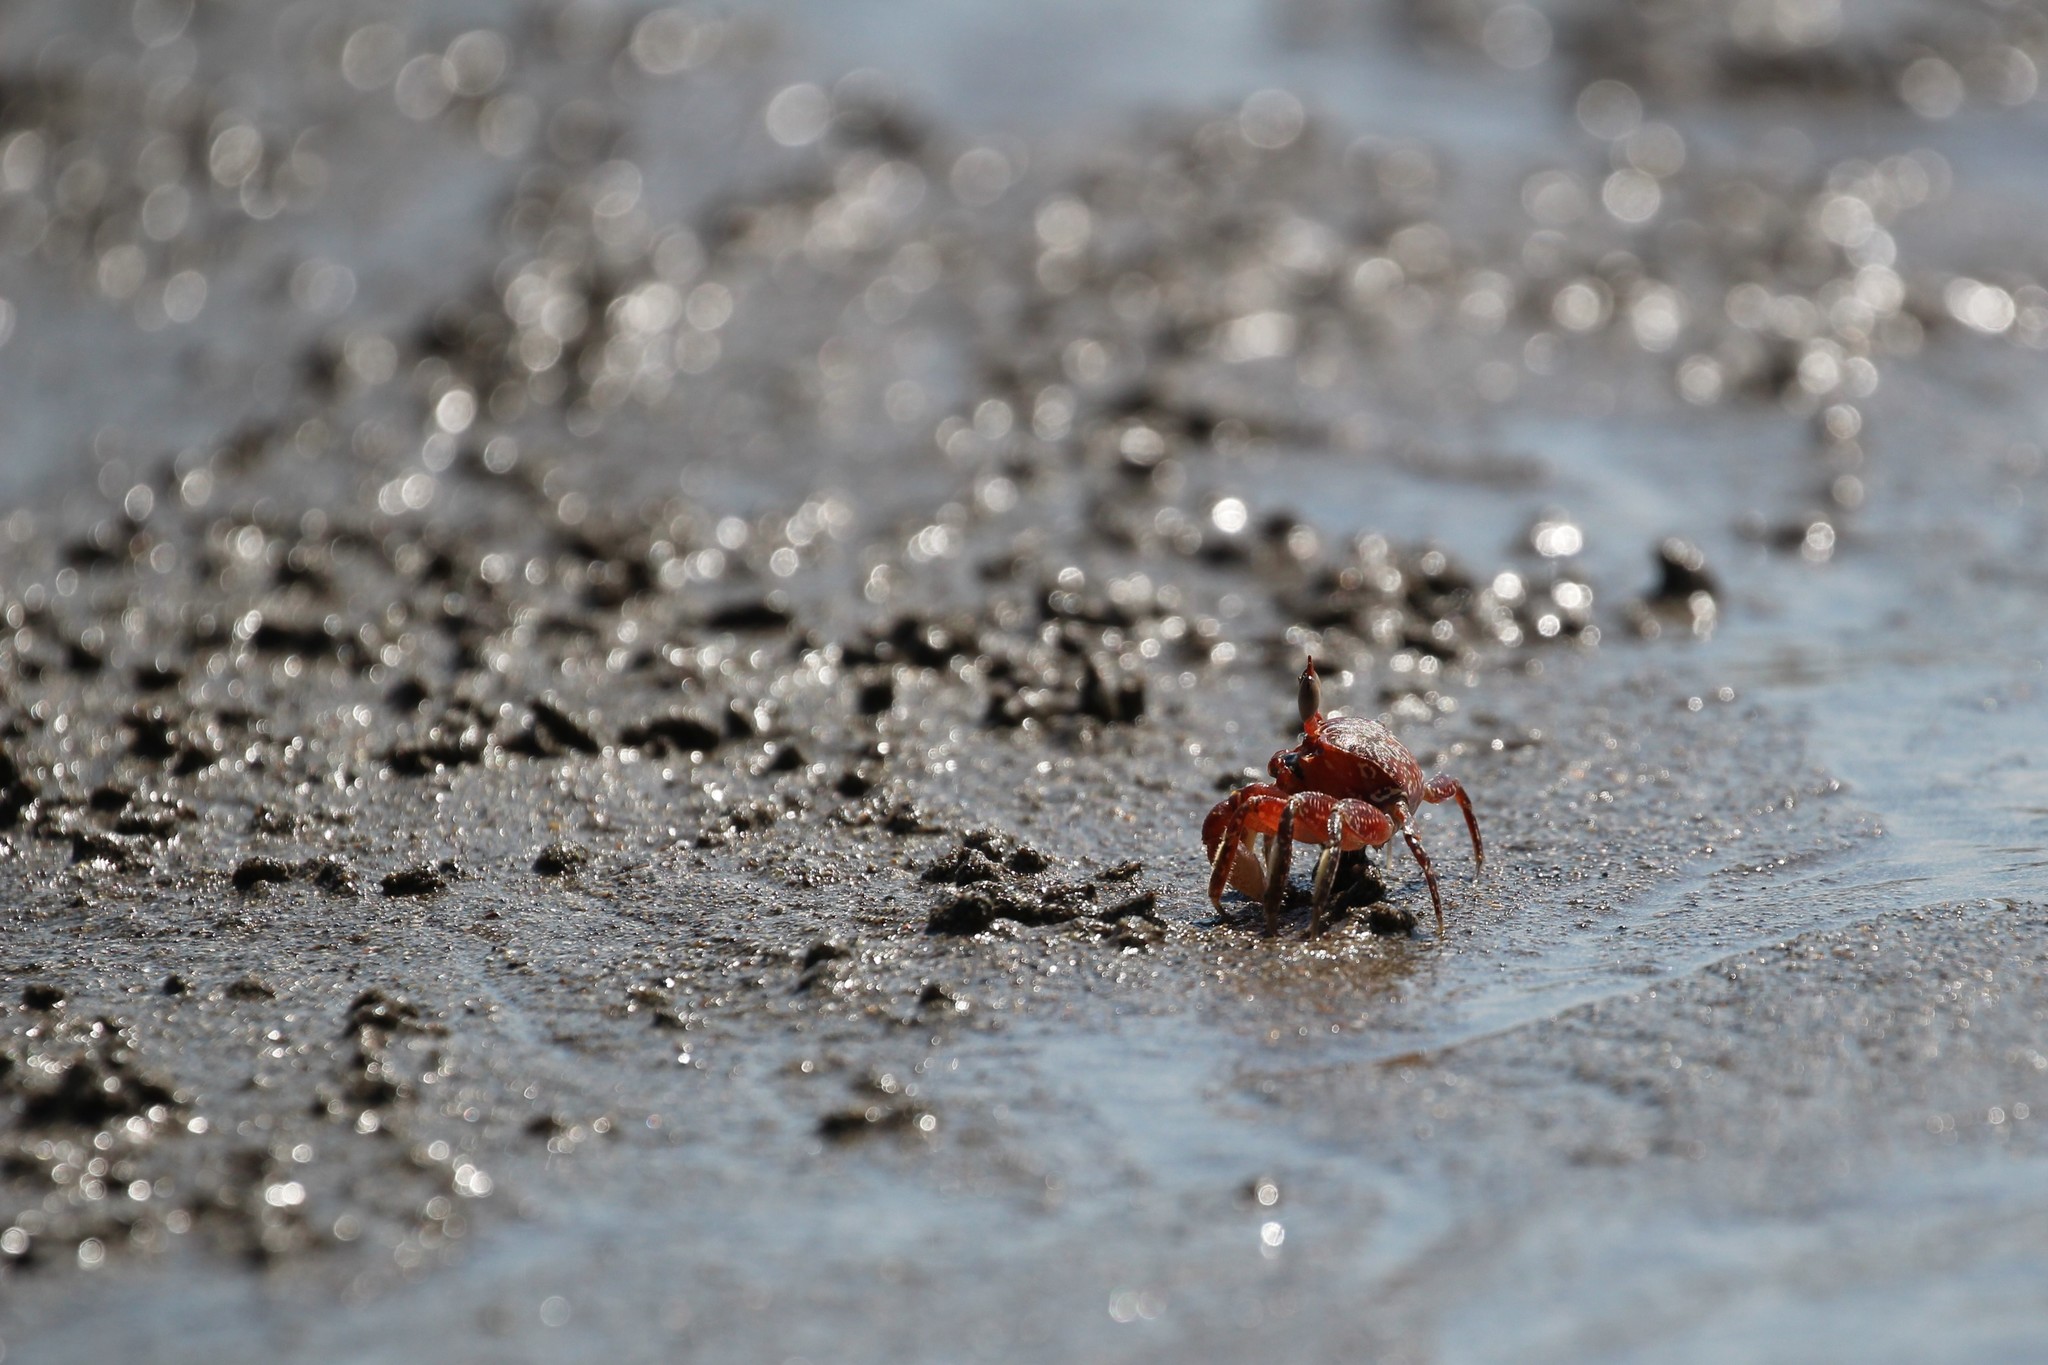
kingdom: Animalia
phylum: Arthropoda
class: Malacostraca
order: Decapoda
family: Ocypodidae
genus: Ocypode
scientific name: Ocypode gaudichaudii
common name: Pacific ghost crab
